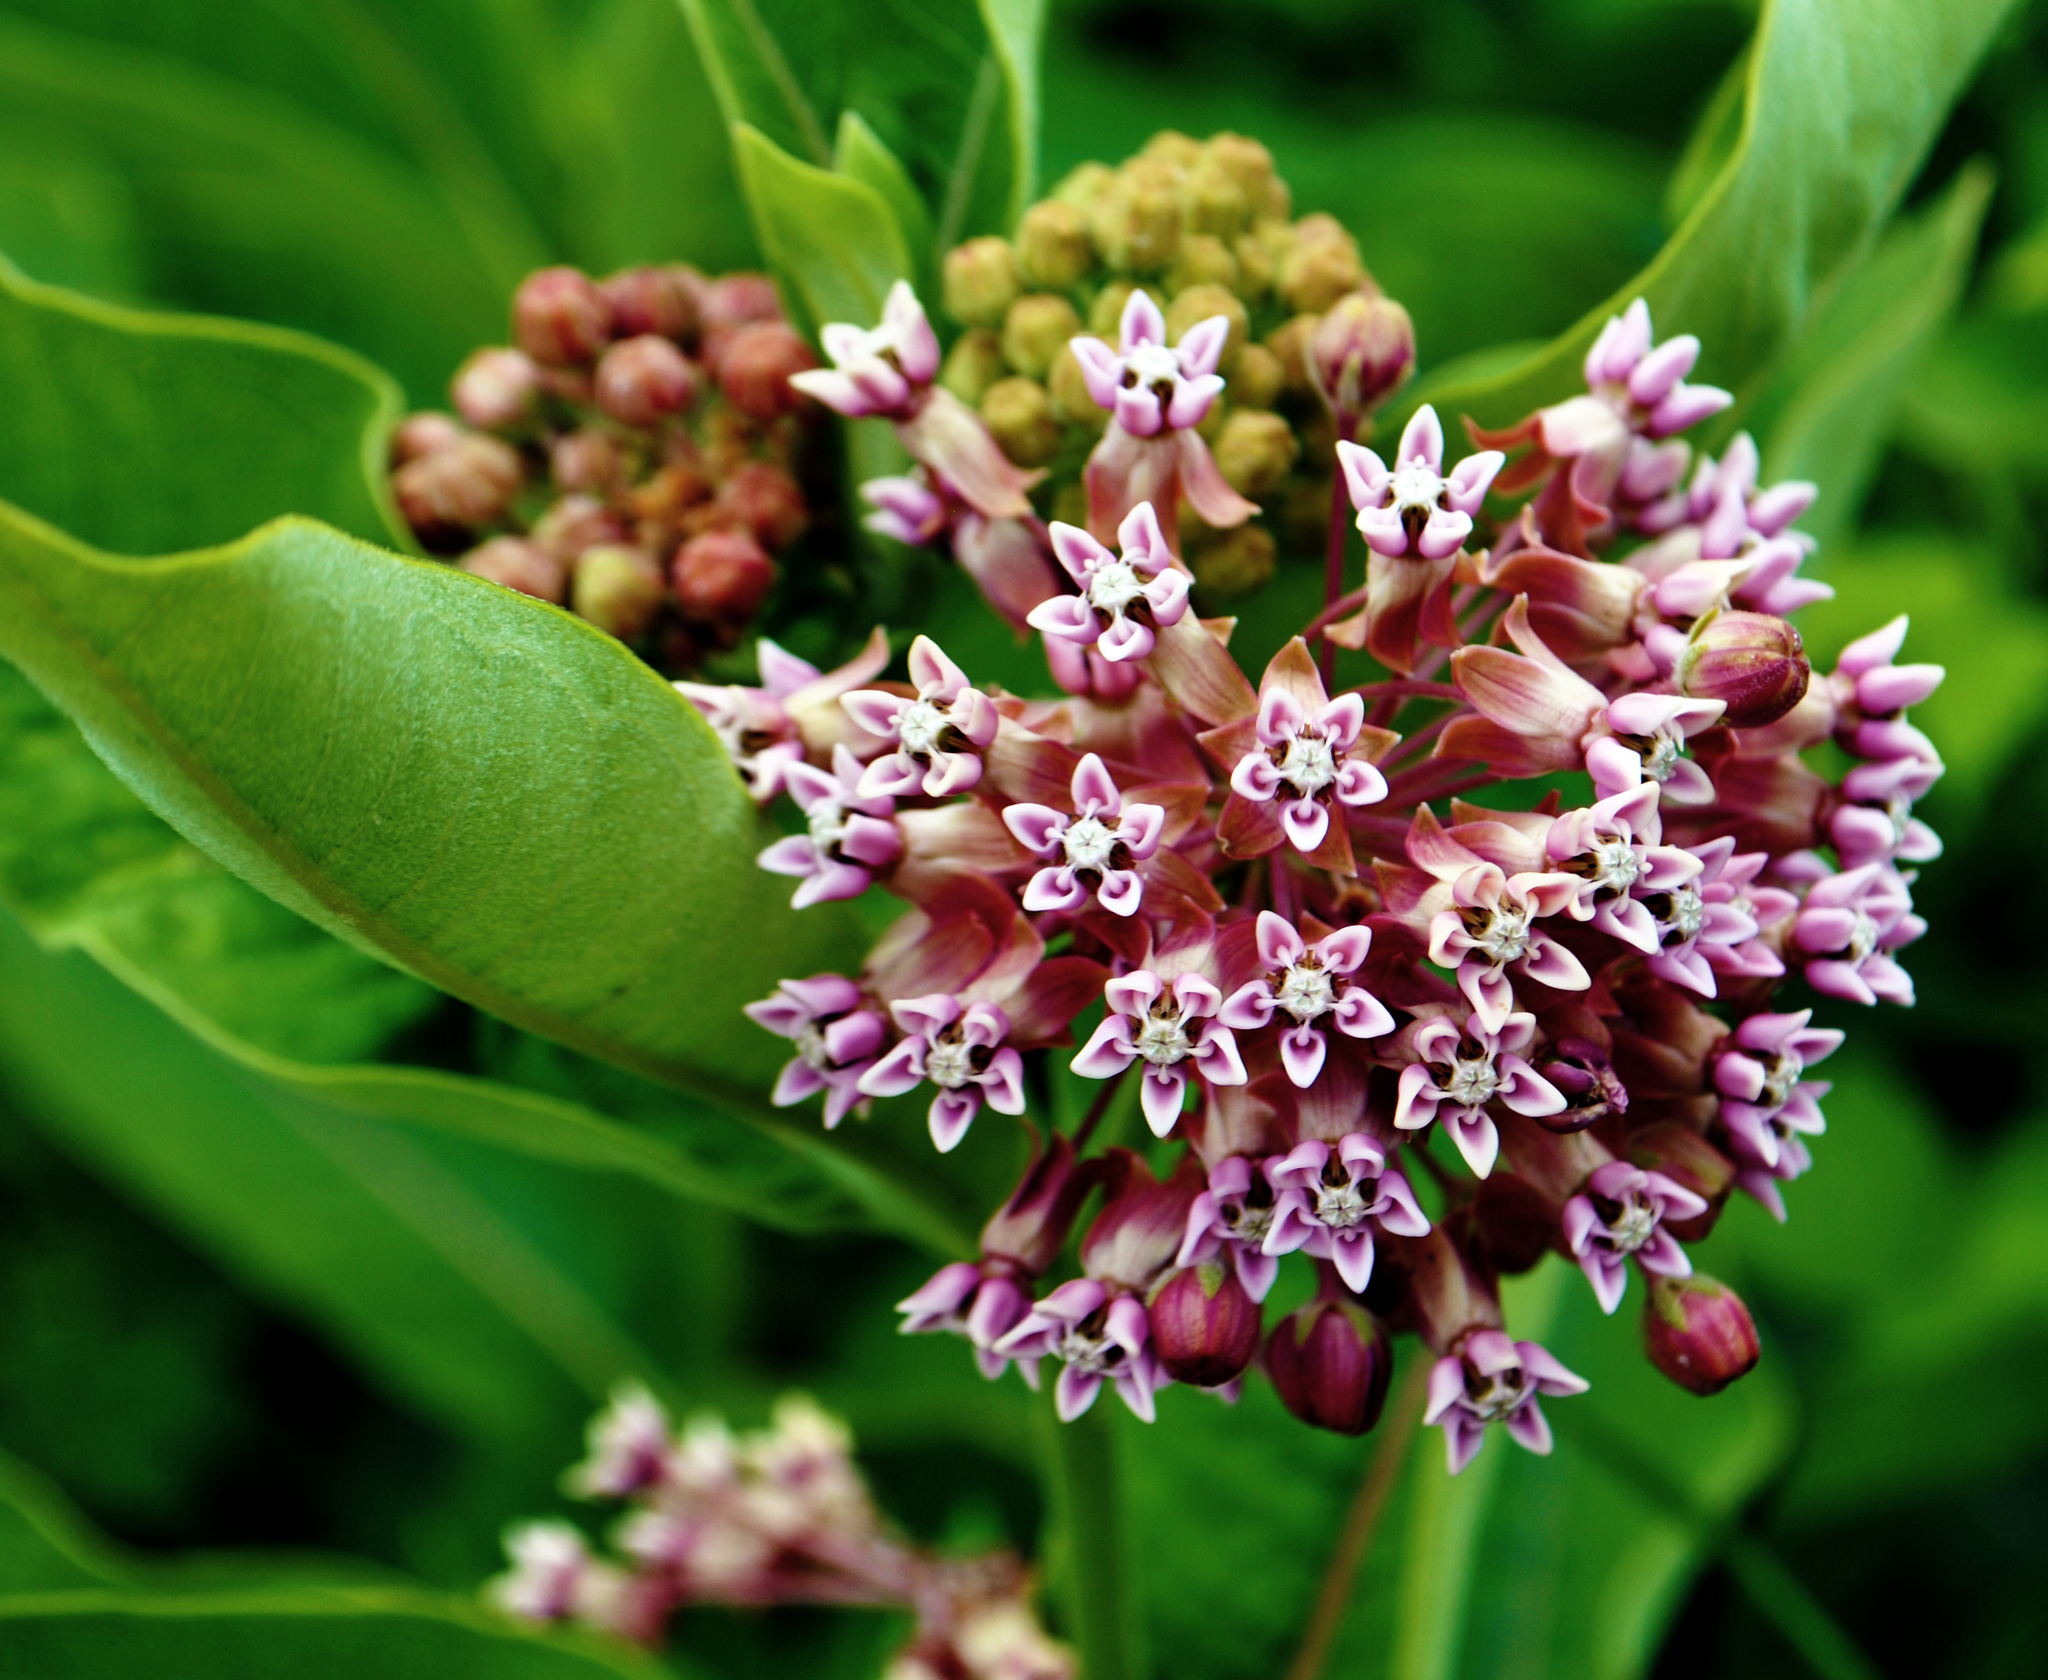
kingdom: Plantae
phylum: Tracheophyta
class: Magnoliopsida
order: Gentianales
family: Apocynaceae
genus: Asclepias
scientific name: Asclepias syriaca
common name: Common milkweed
